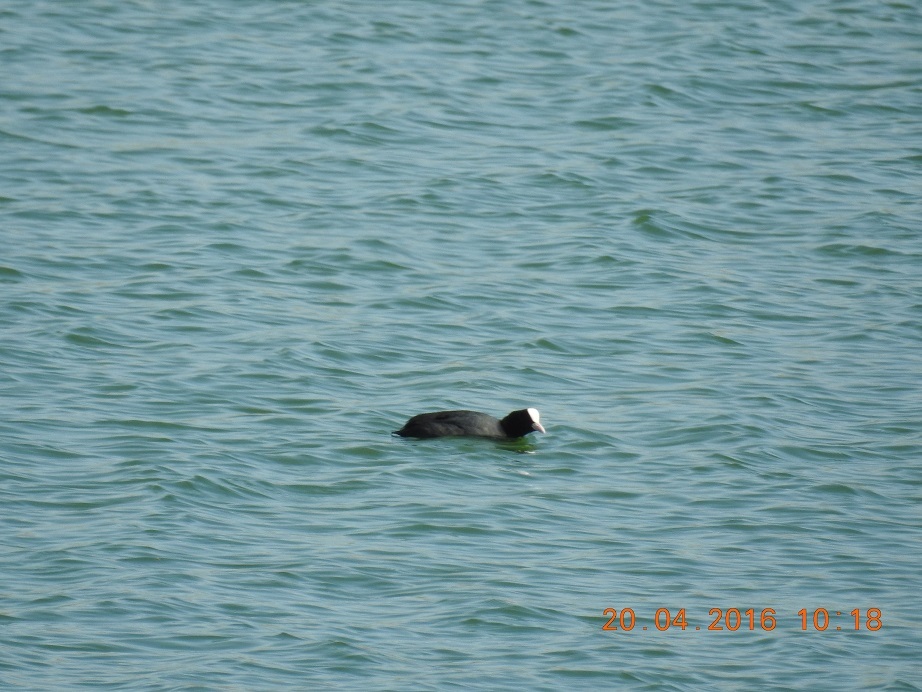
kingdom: Animalia
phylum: Chordata
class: Aves
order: Gruiformes
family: Rallidae
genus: Fulica
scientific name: Fulica atra
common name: Eurasian coot
